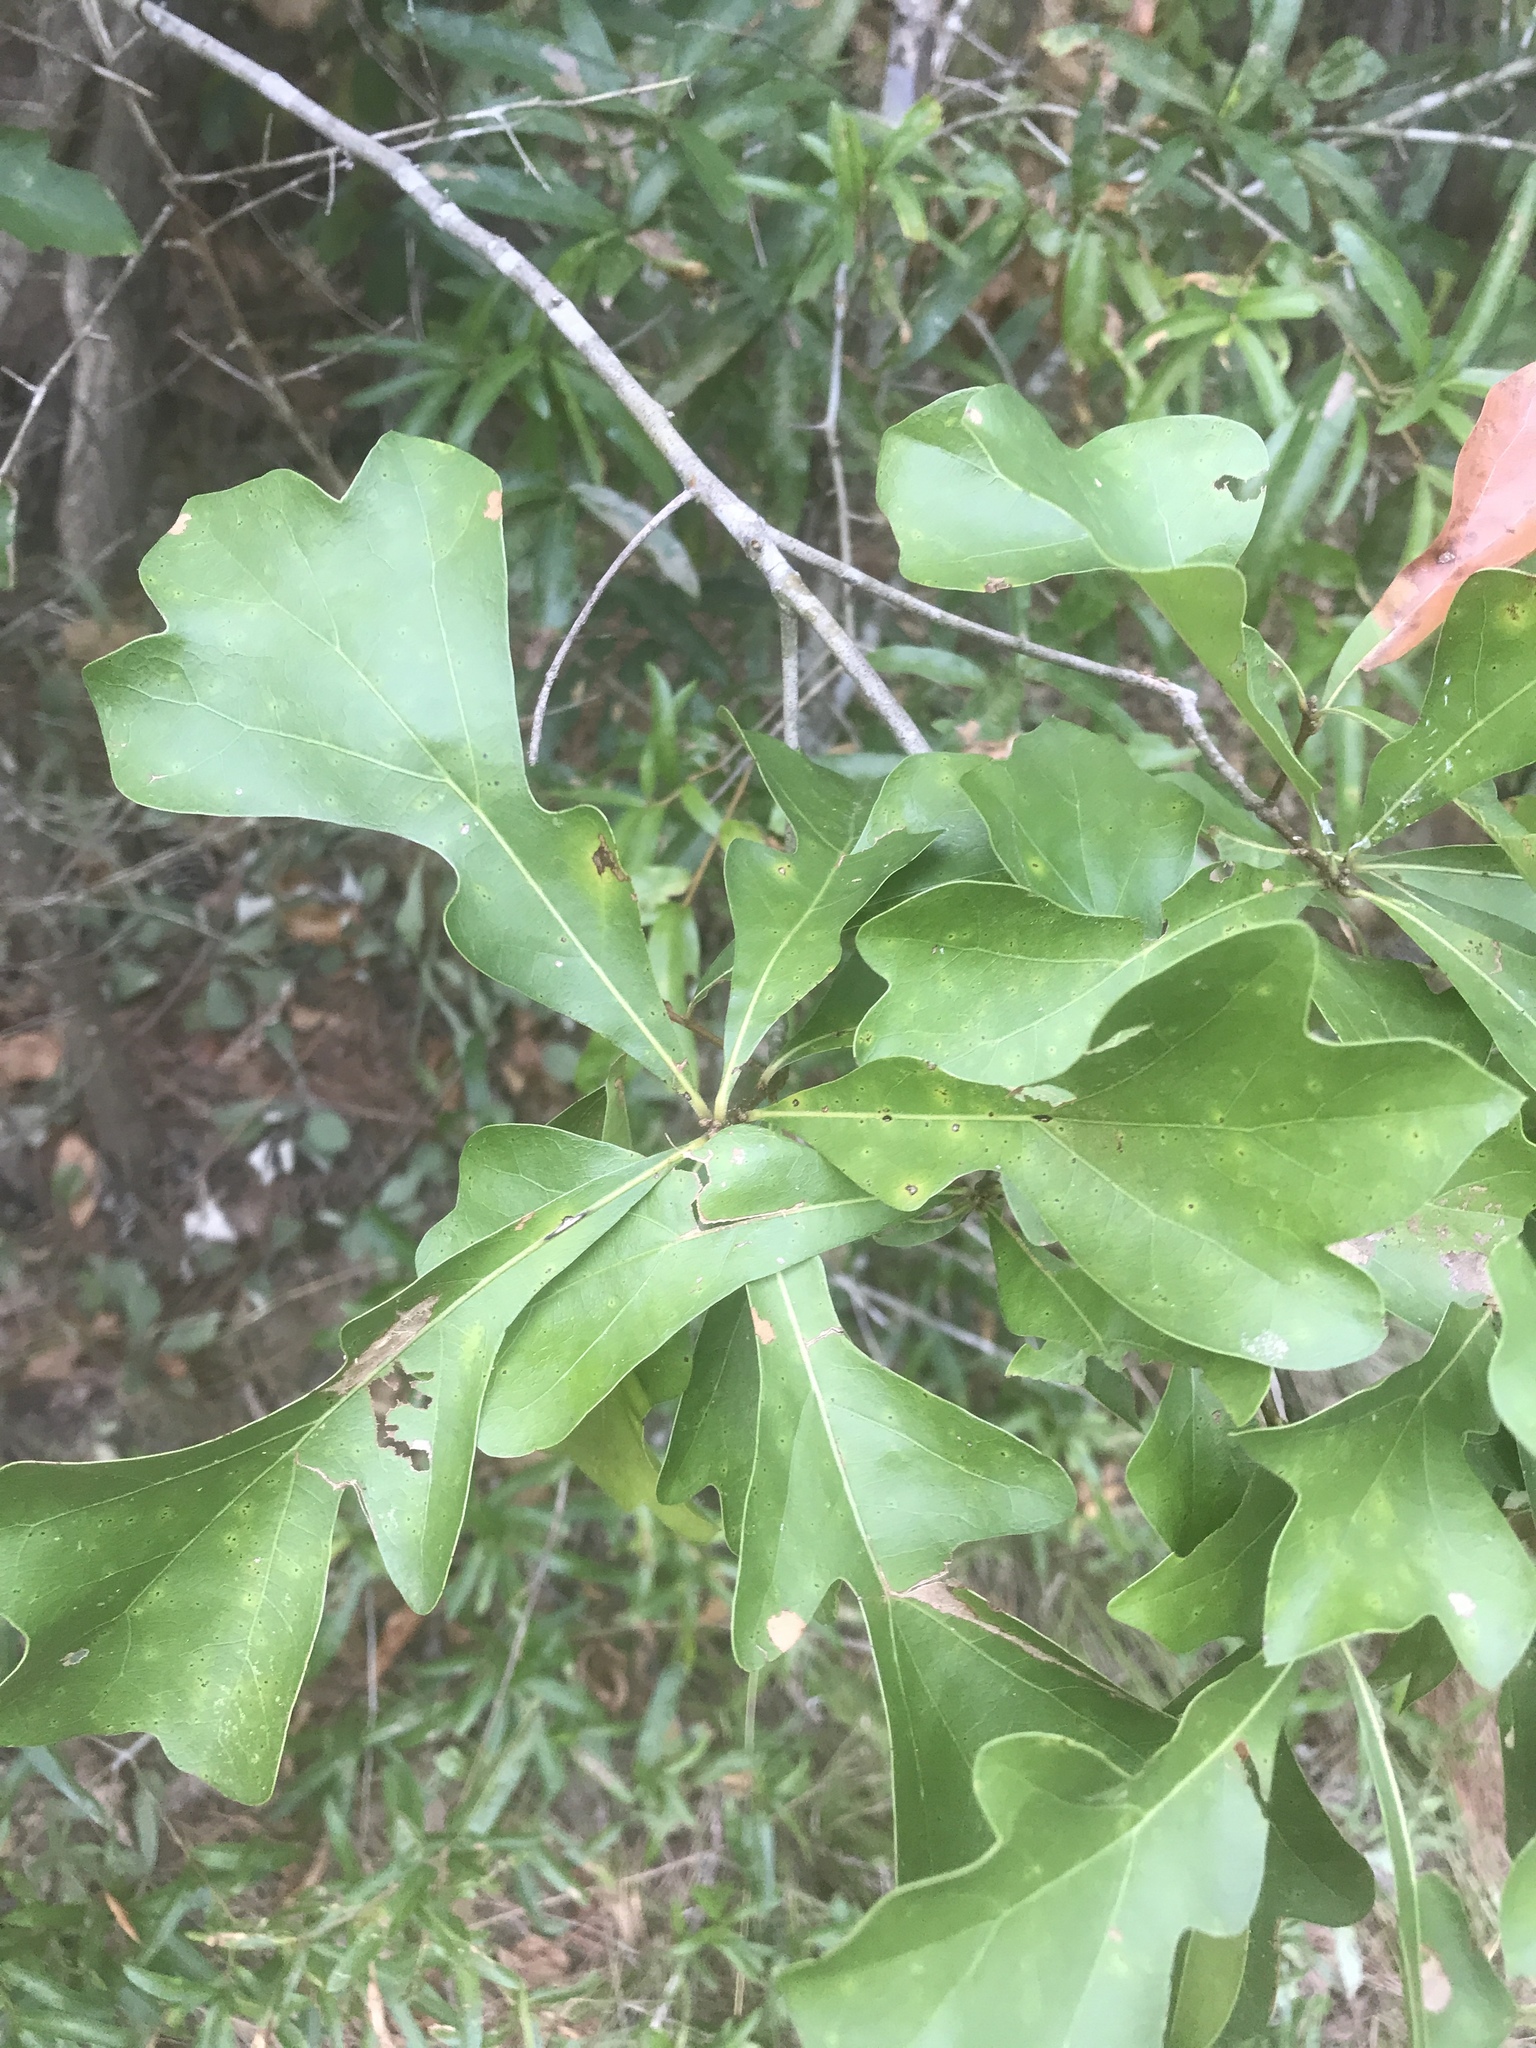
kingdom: Plantae
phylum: Tracheophyta
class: Magnoliopsida
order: Fagales
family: Fagaceae
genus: Quercus
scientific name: Quercus nigra
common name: Water oak
